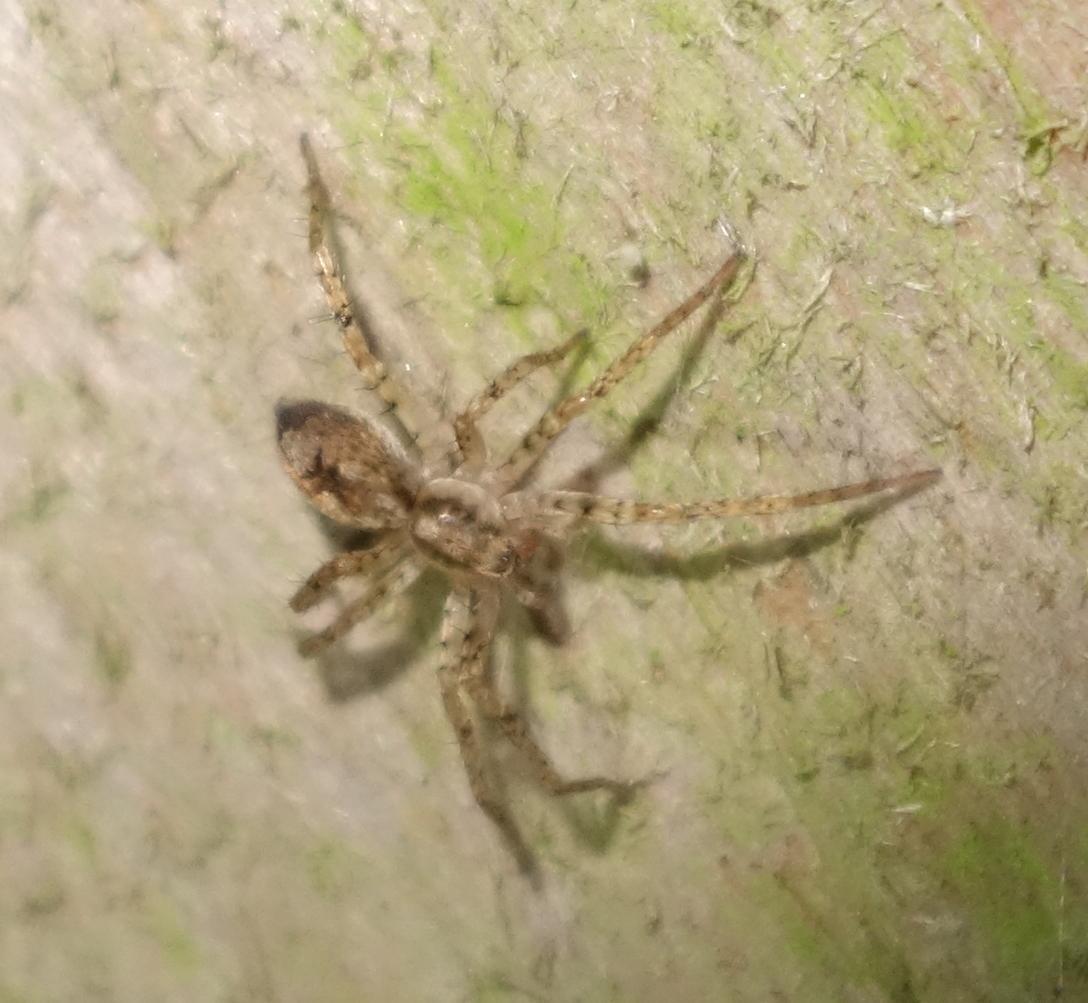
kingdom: Animalia
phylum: Arthropoda
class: Arachnida
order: Araneae
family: Anyphaenidae
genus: Anyphaena
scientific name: Anyphaena accentuata
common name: Buzzing spider
